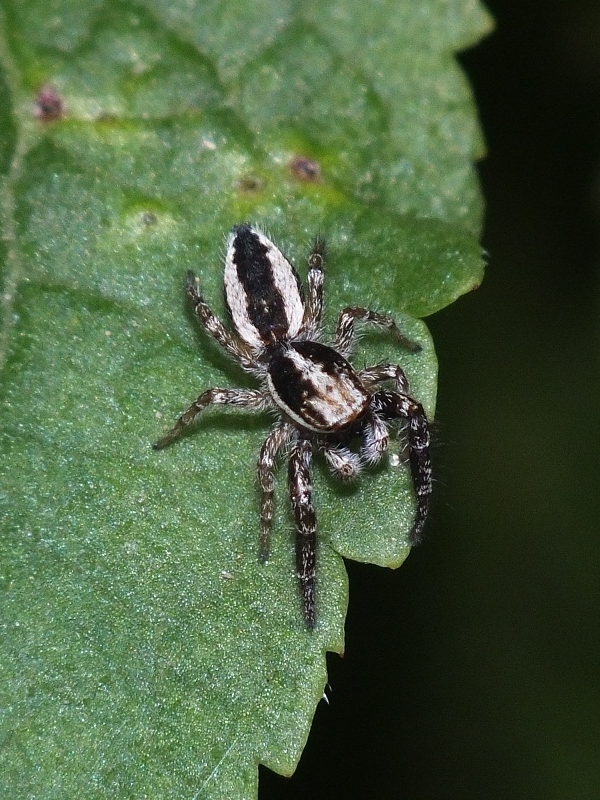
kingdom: Animalia
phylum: Arthropoda
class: Arachnida
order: Araneae
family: Salticidae
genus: Pseudicius
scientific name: Pseudicius encarpatus
